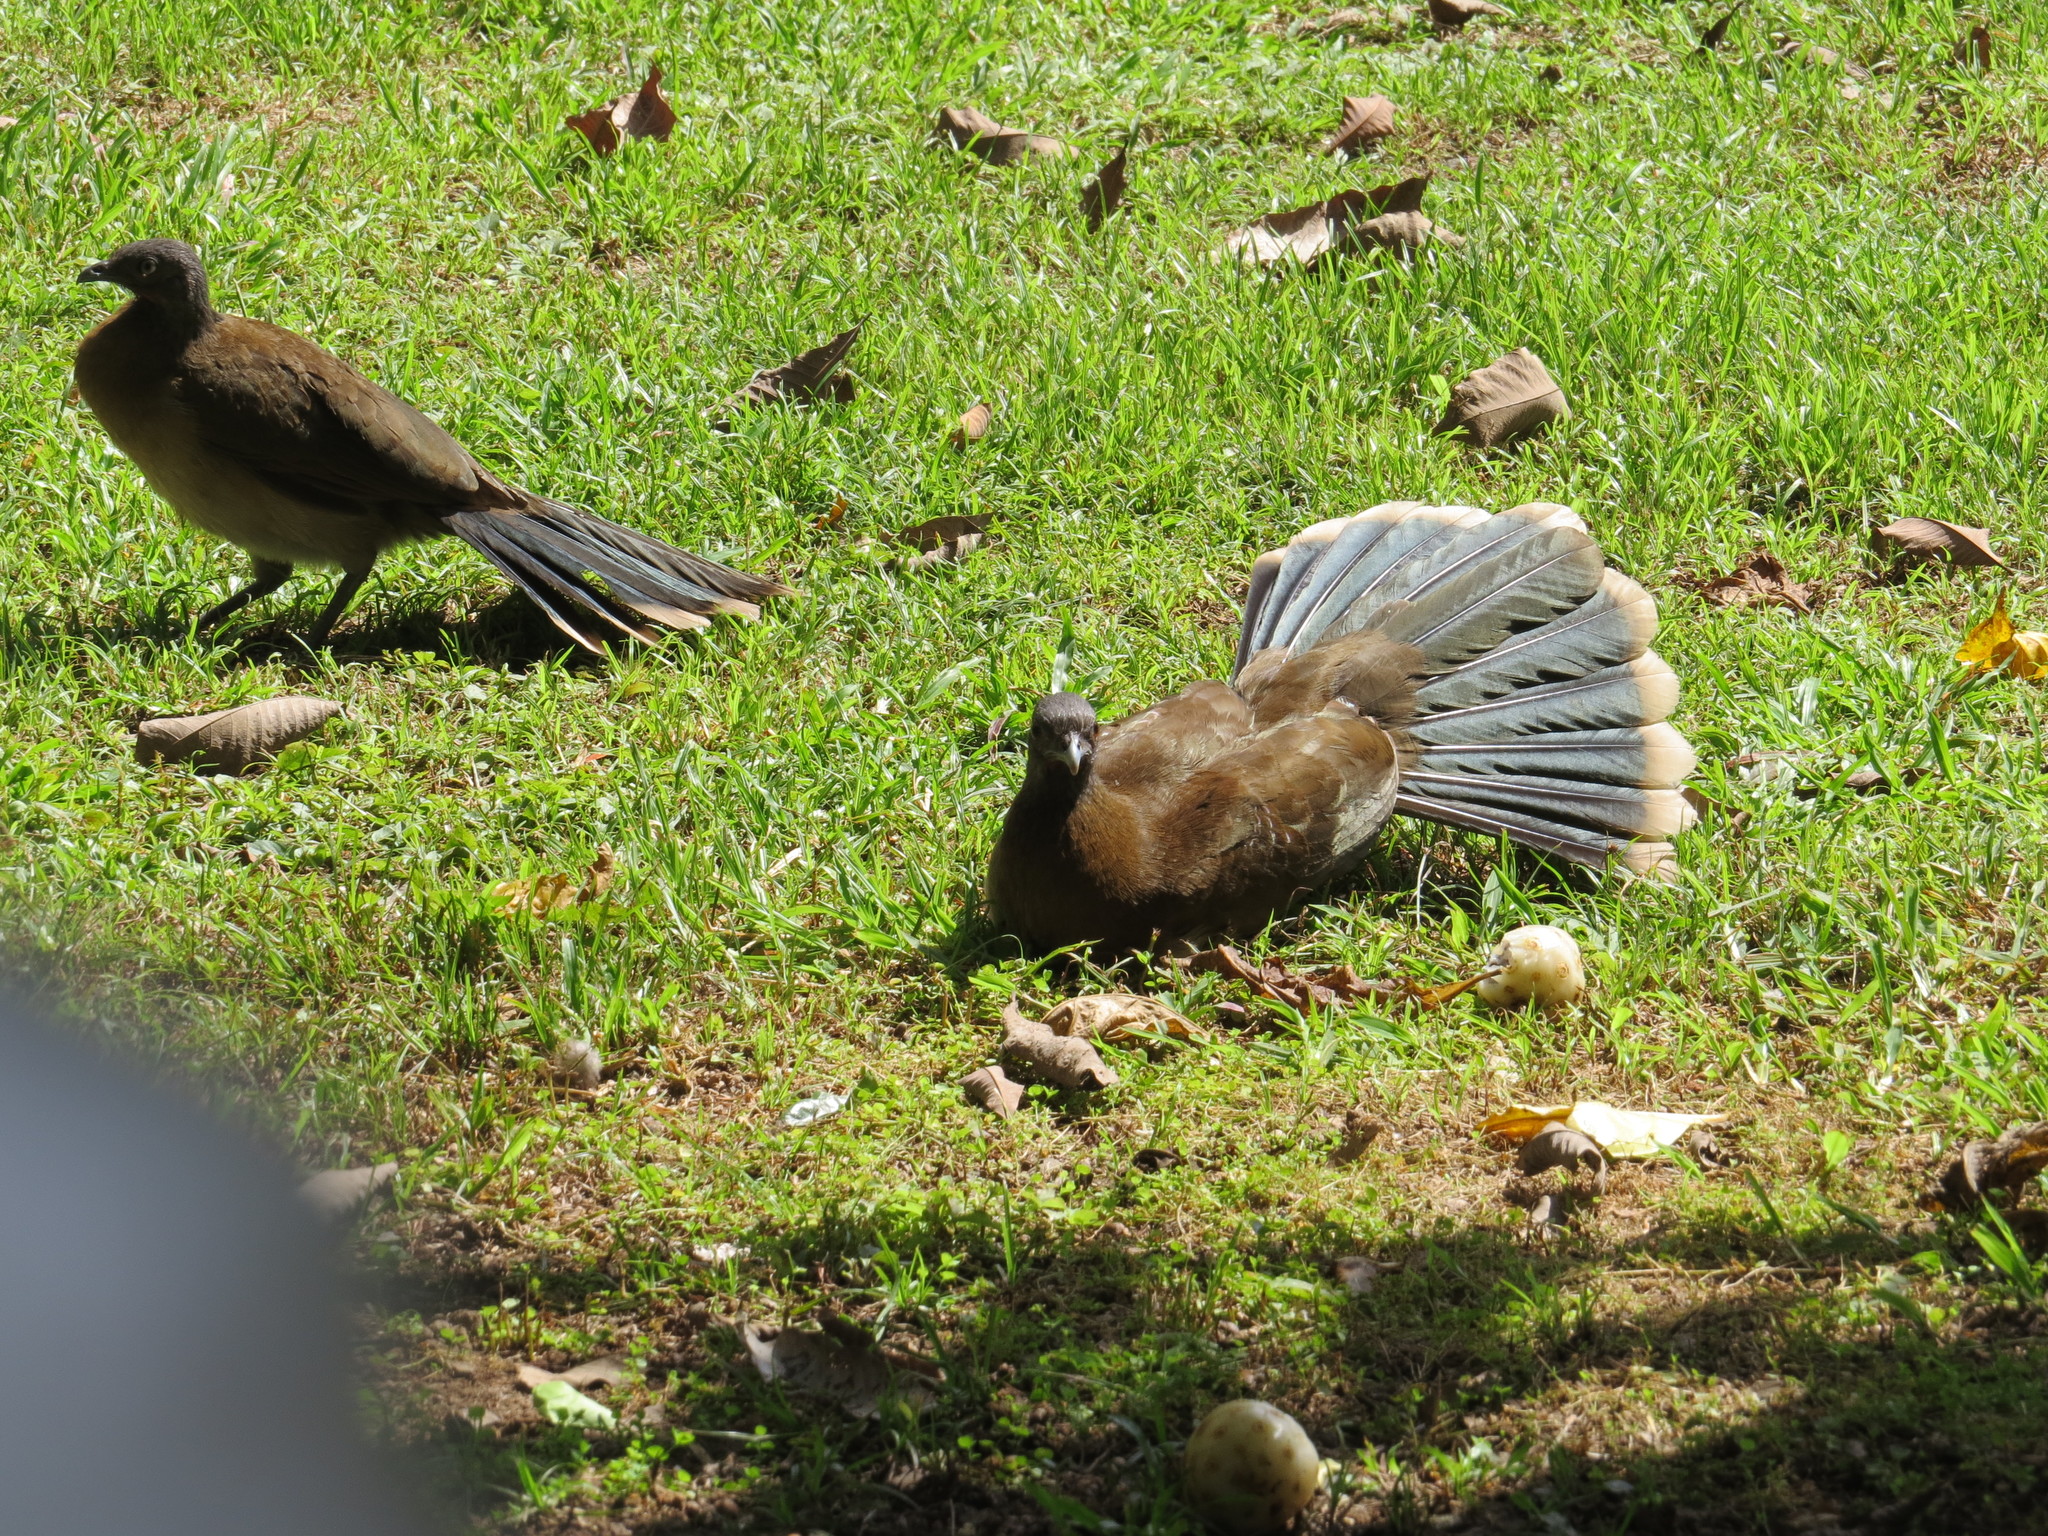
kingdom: Animalia
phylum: Chordata
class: Aves
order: Galliformes
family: Cracidae
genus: Ortalis
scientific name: Ortalis cinereiceps
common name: Grey-headed chachalaca
